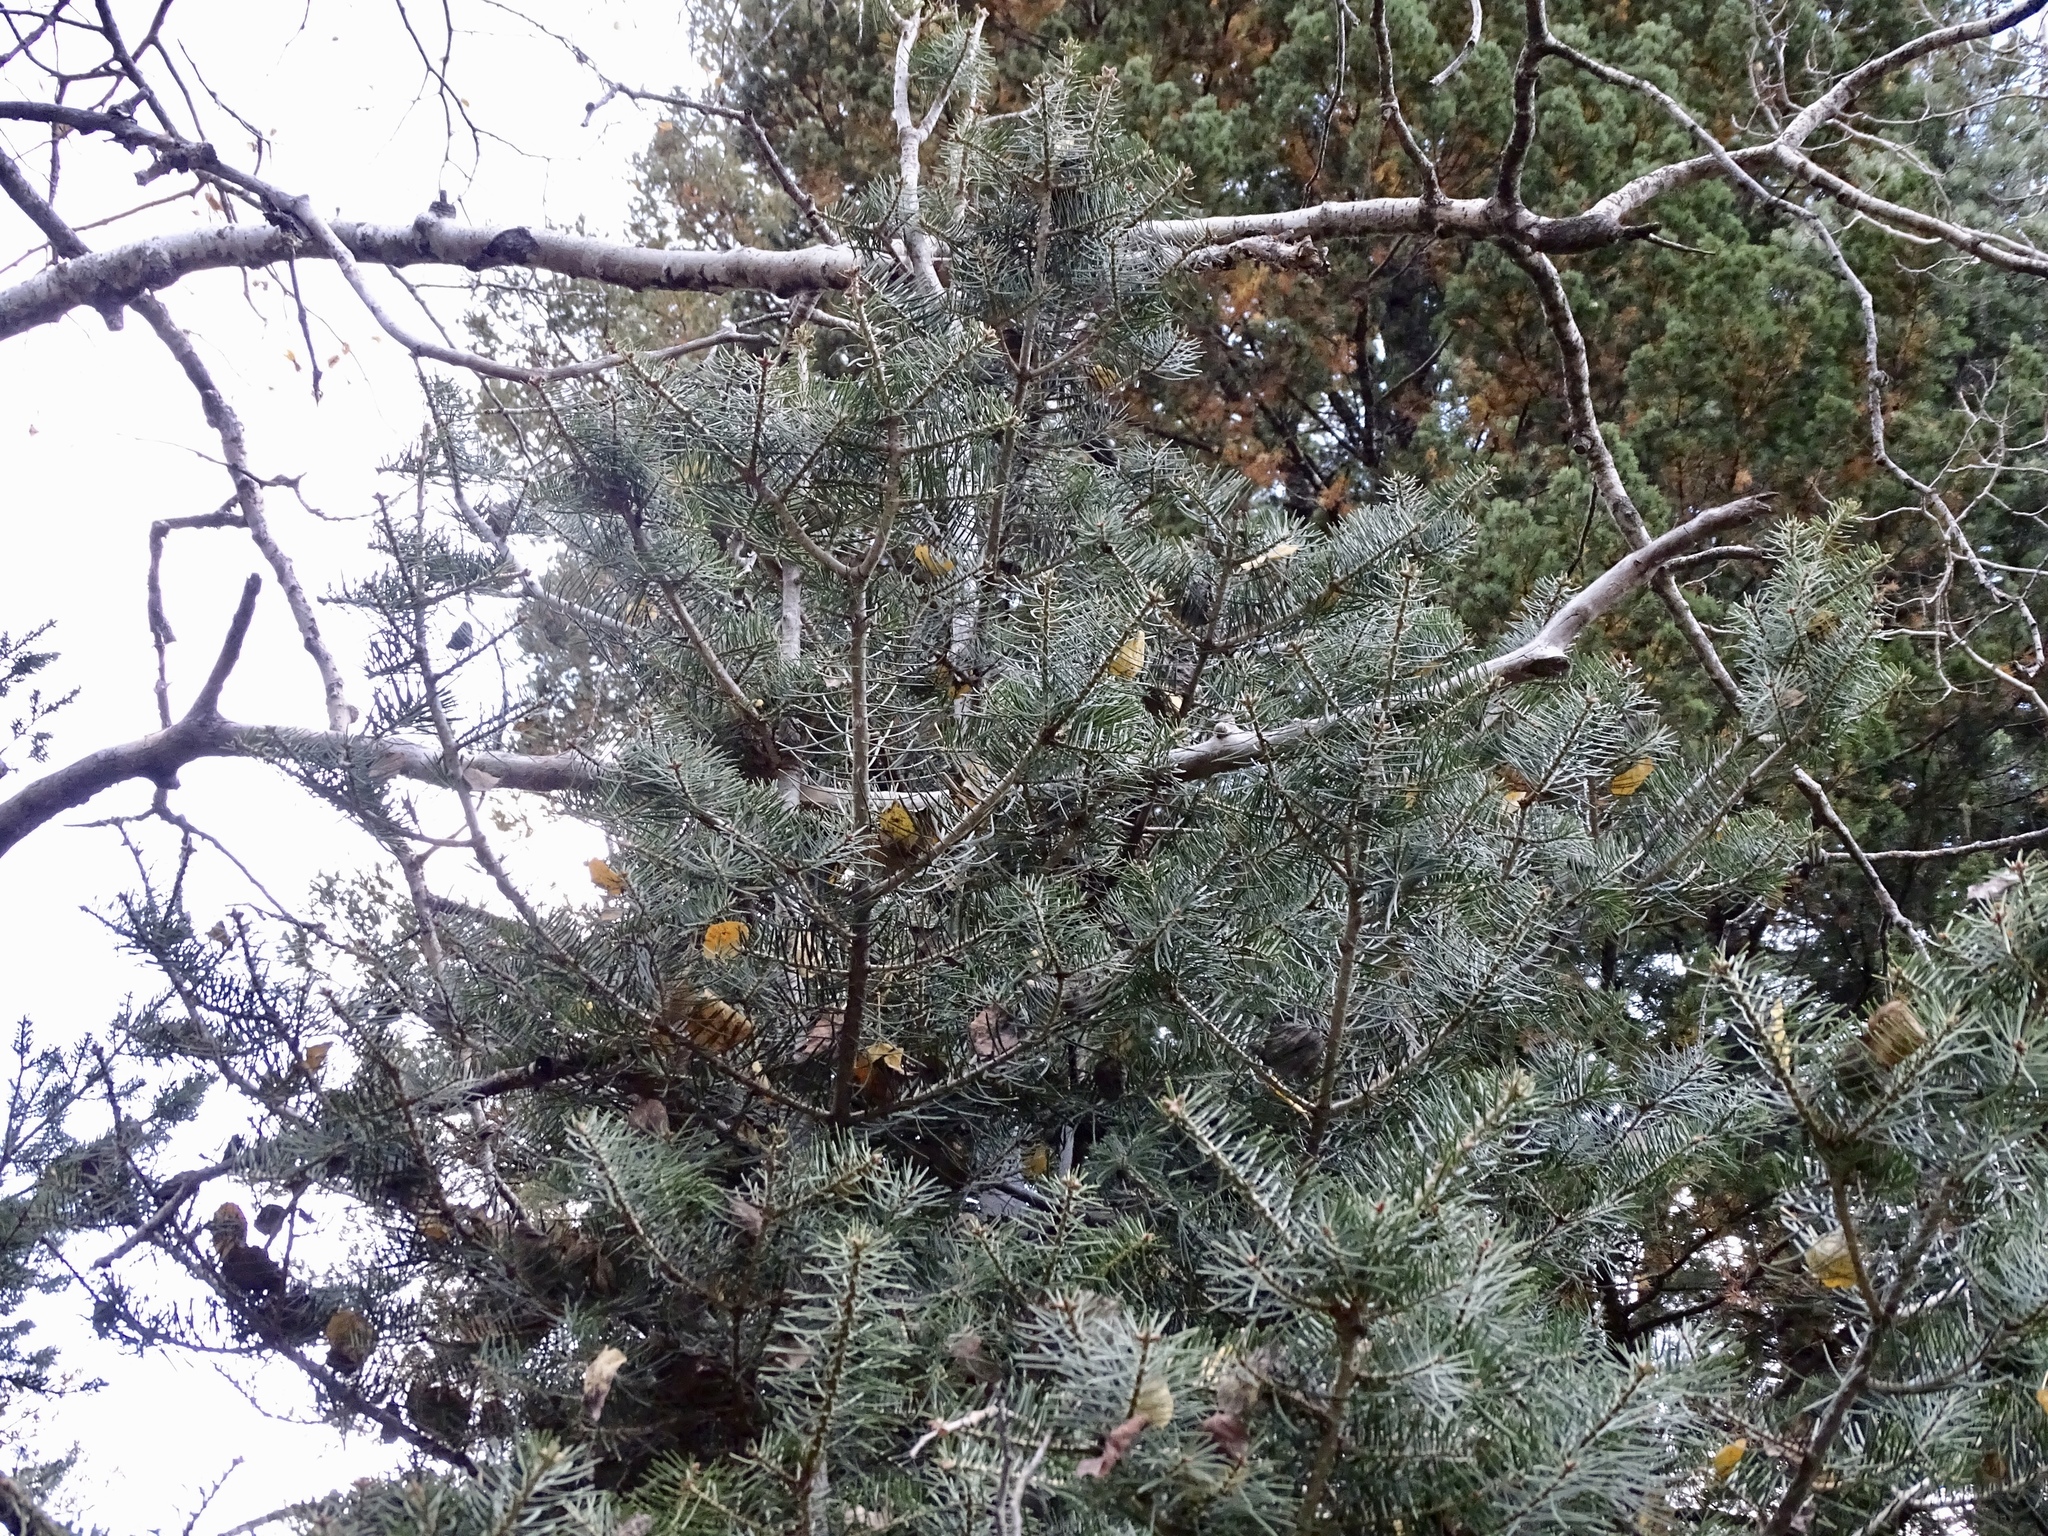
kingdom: Plantae
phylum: Tracheophyta
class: Pinopsida
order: Pinales
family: Pinaceae
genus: Abies
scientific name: Abies concolor
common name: Colorado fir
